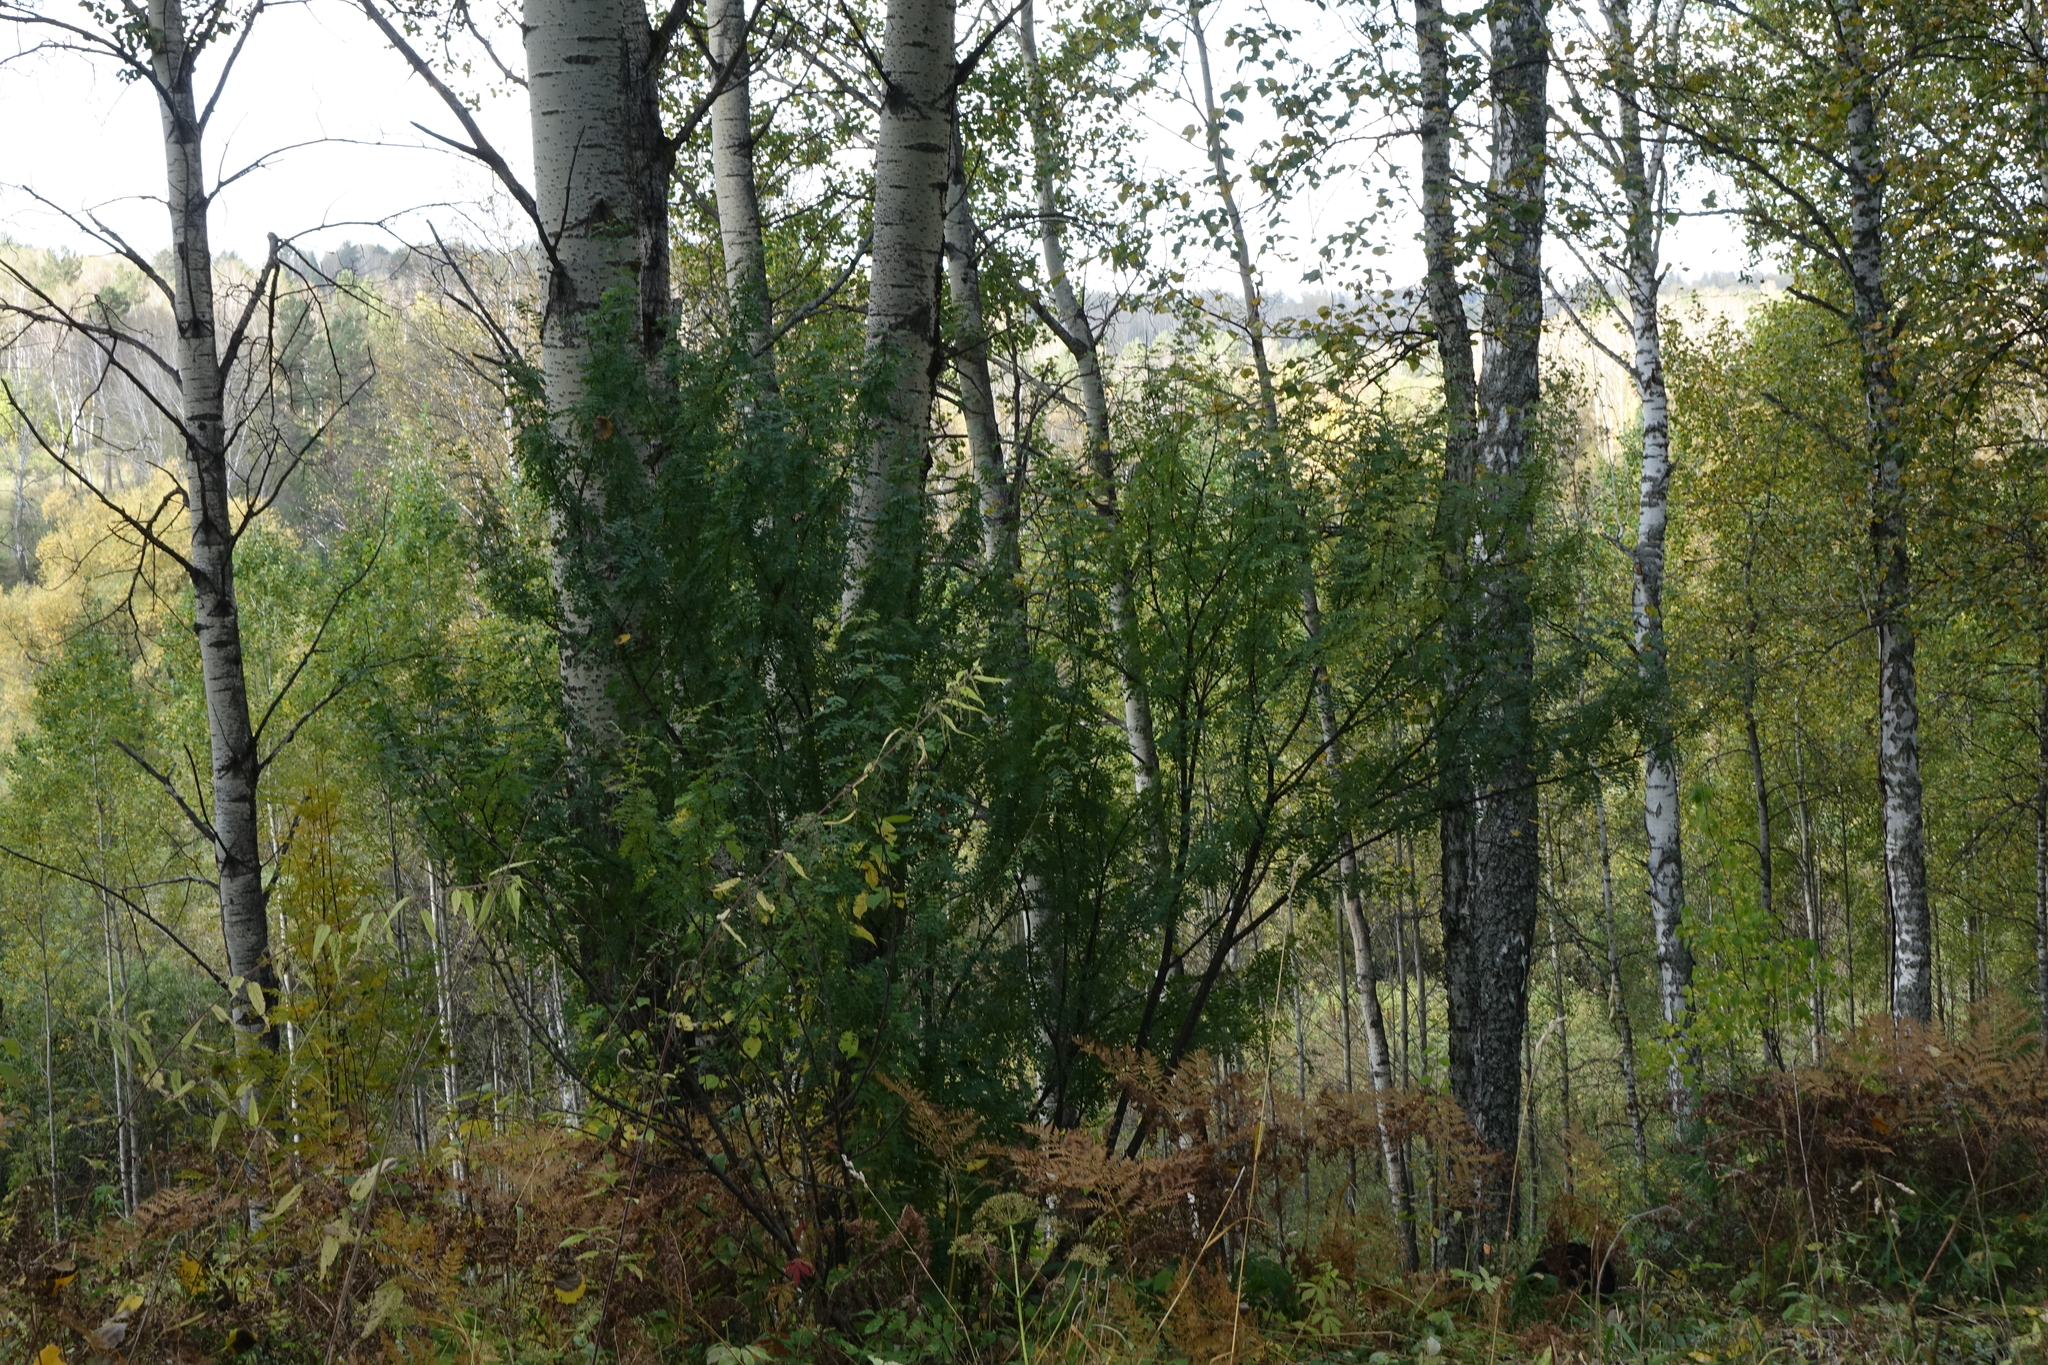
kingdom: Plantae
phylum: Tracheophyta
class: Magnoliopsida
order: Fabales
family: Fabaceae
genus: Caragana
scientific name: Caragana arborescens
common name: Siberian peashrub
